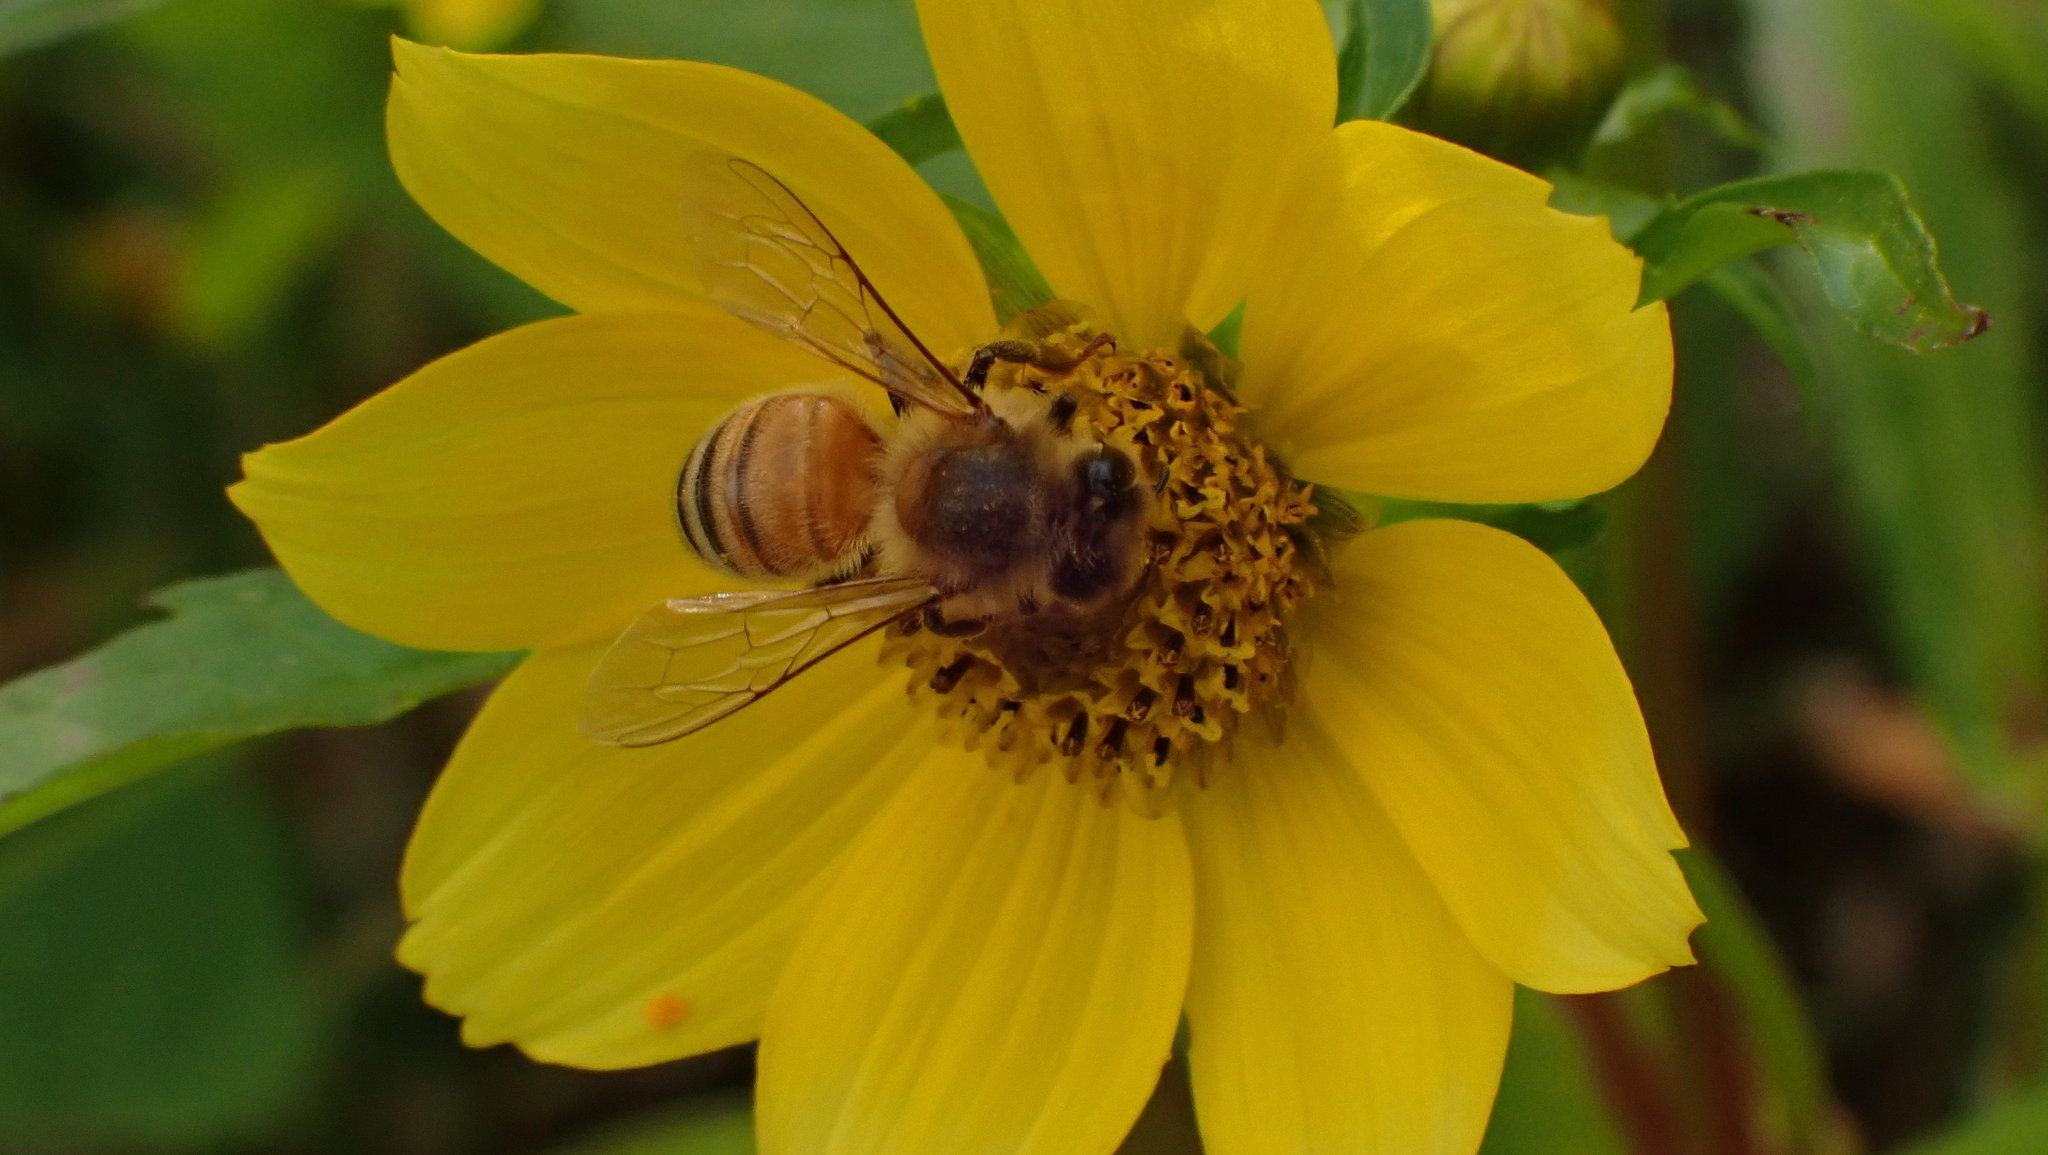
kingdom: Animalia
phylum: Arthropoda
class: Insecta
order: Hymenoptera
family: Apidae
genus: Apis
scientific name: Apis mellifera
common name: Honey bee
